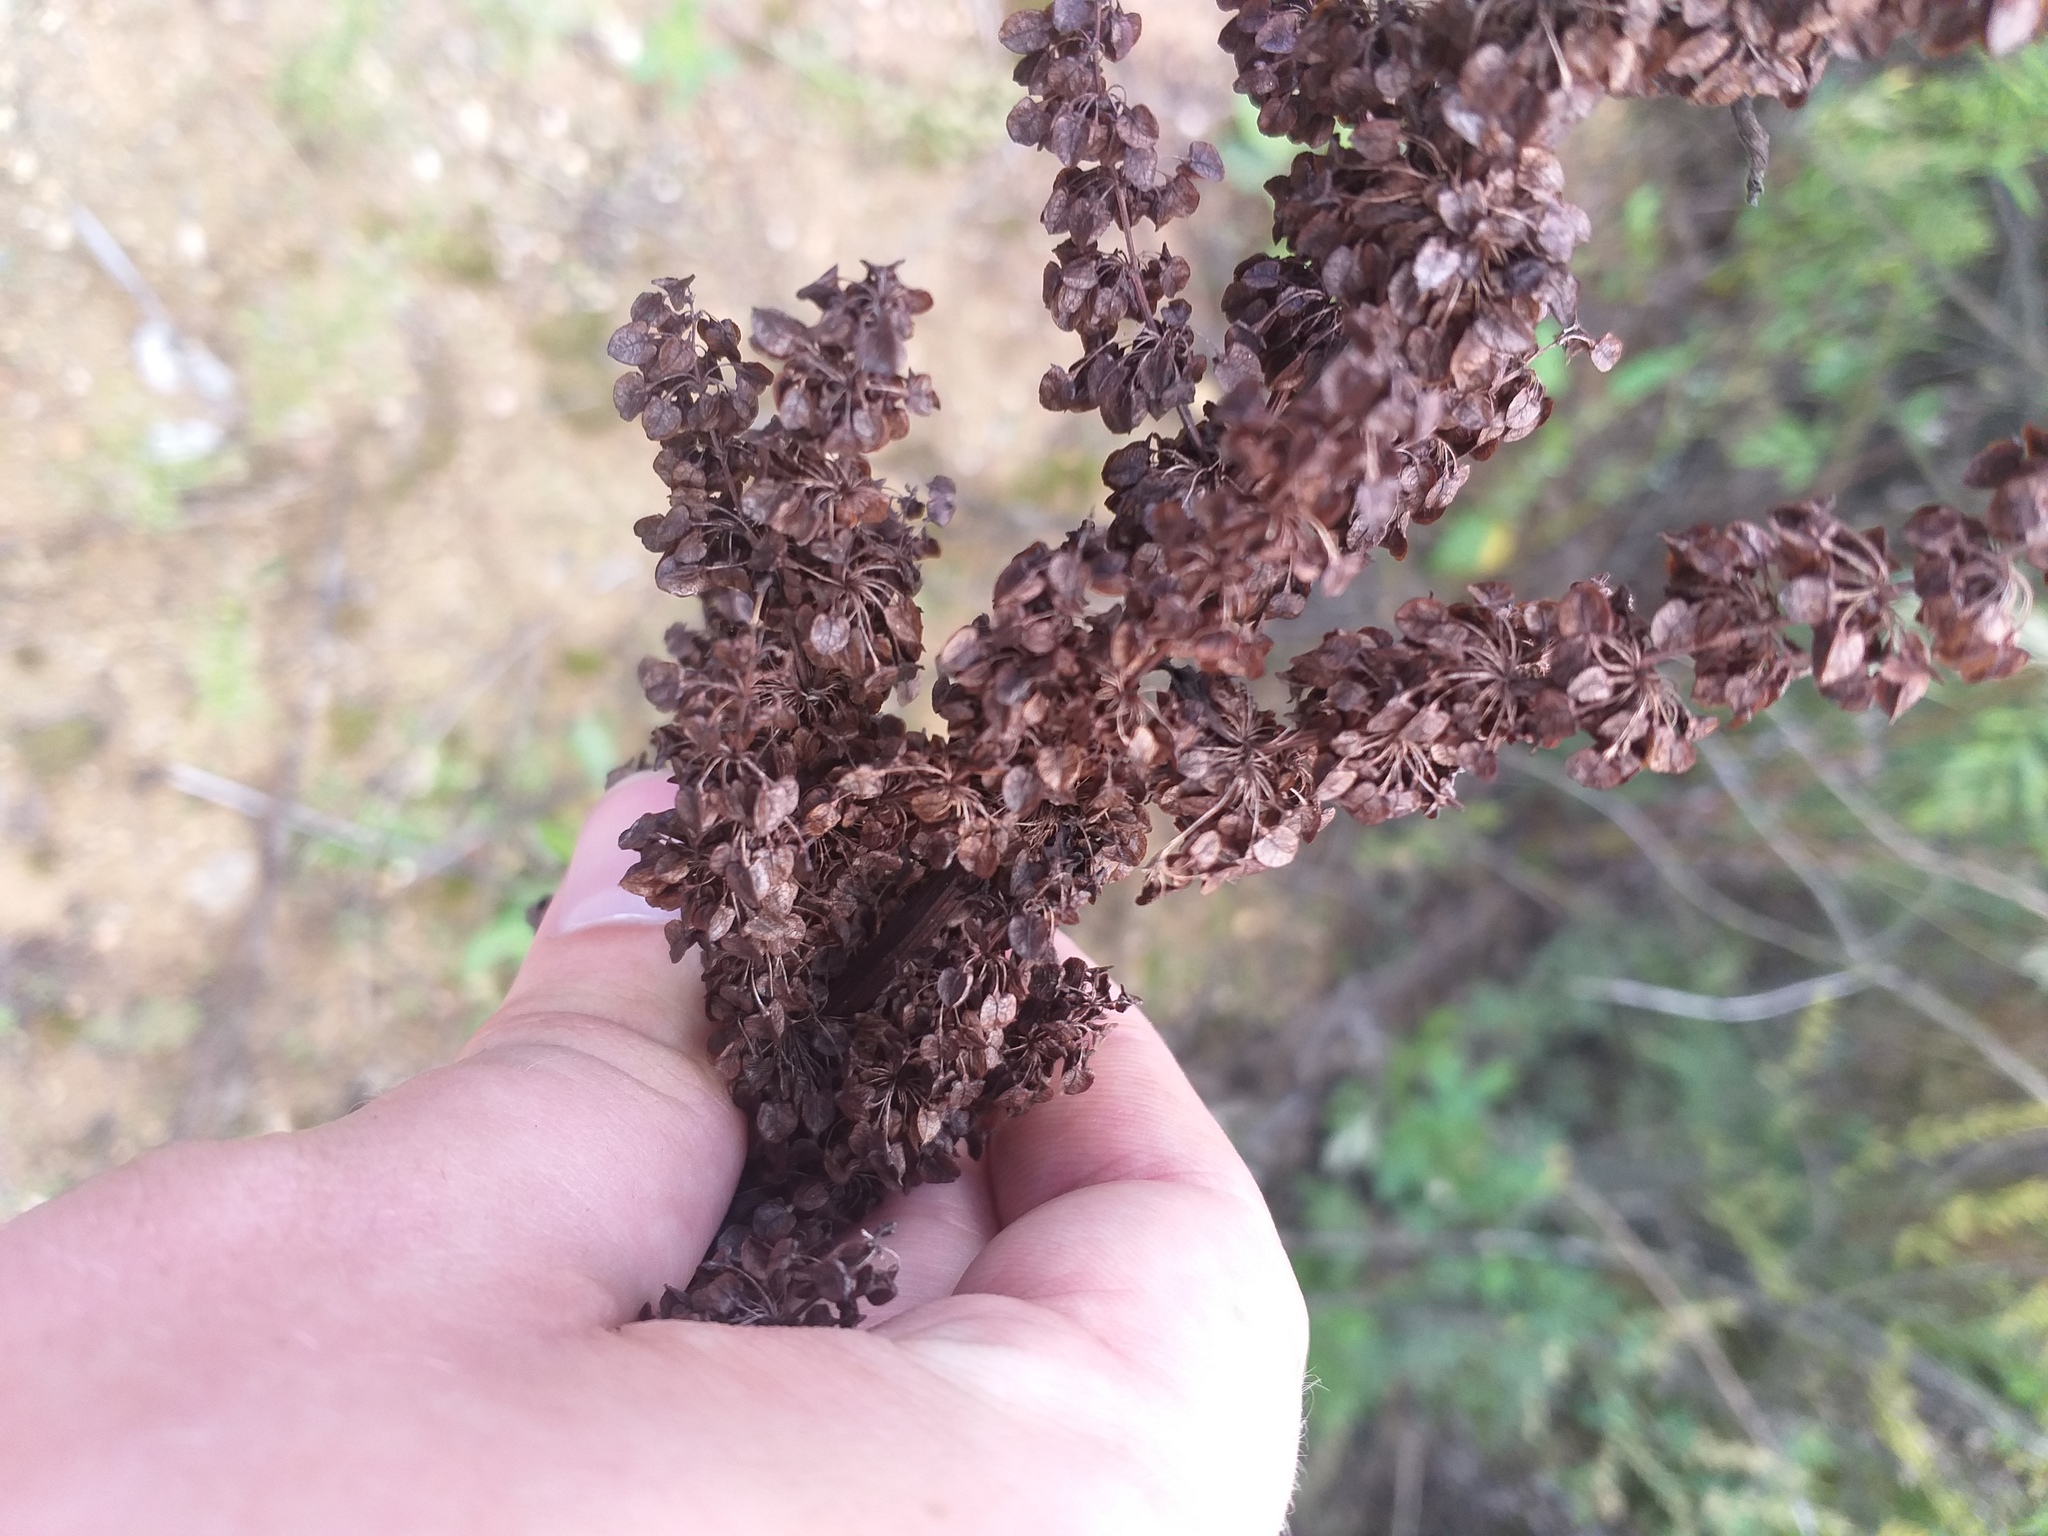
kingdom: Plantae
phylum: Tracheophyta
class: Magnoliopsida
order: Caryophyllales
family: Polygonaceae
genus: Rumex
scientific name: Rumex pseudonatronatus
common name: Field dock
